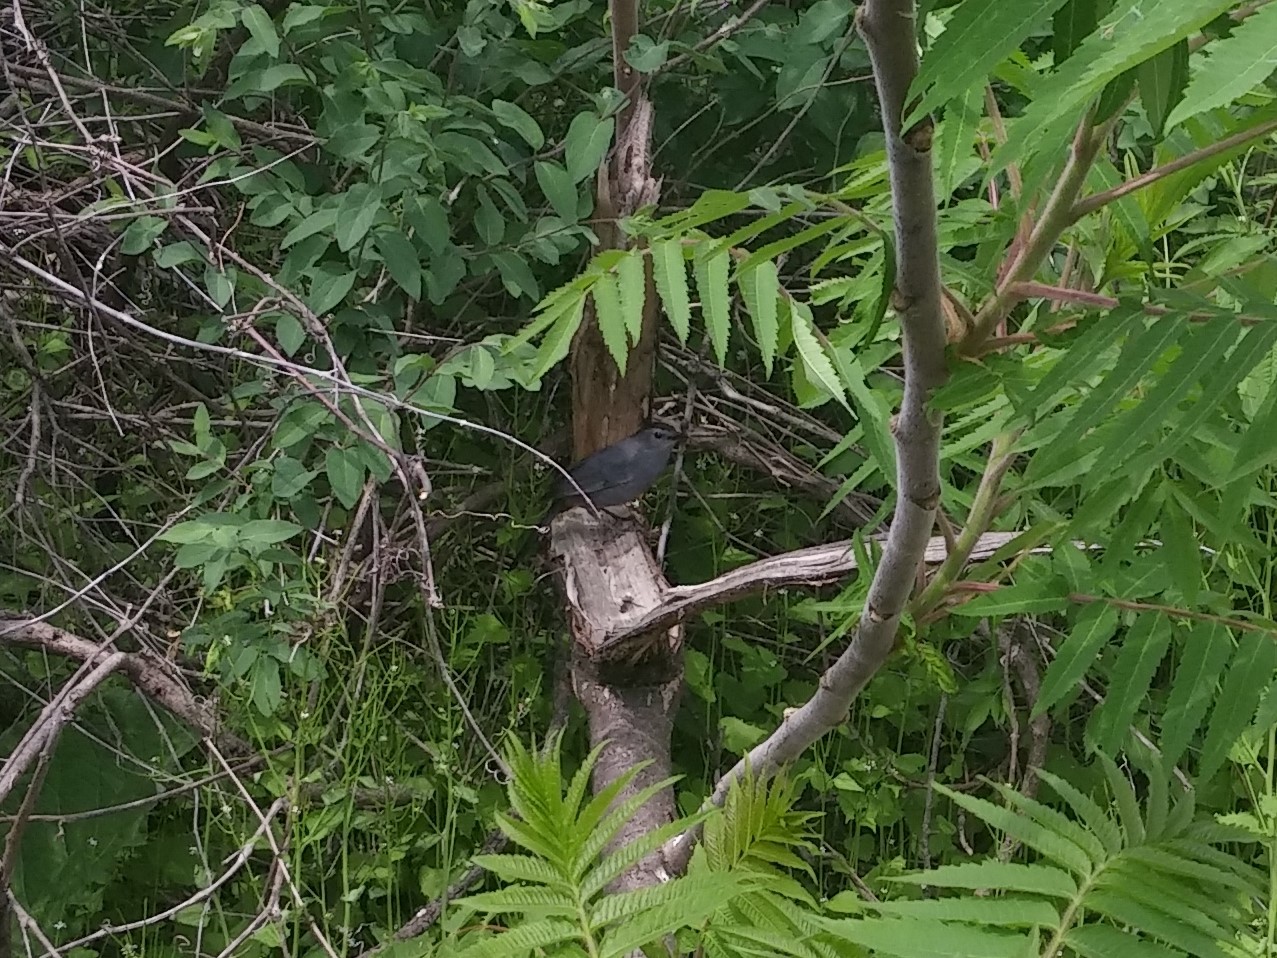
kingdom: Animalia
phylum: Chordata
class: Aves
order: Passeriformes
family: Mimidae
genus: Dumetella
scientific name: Dumetella carolinensis
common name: Gray catbird
